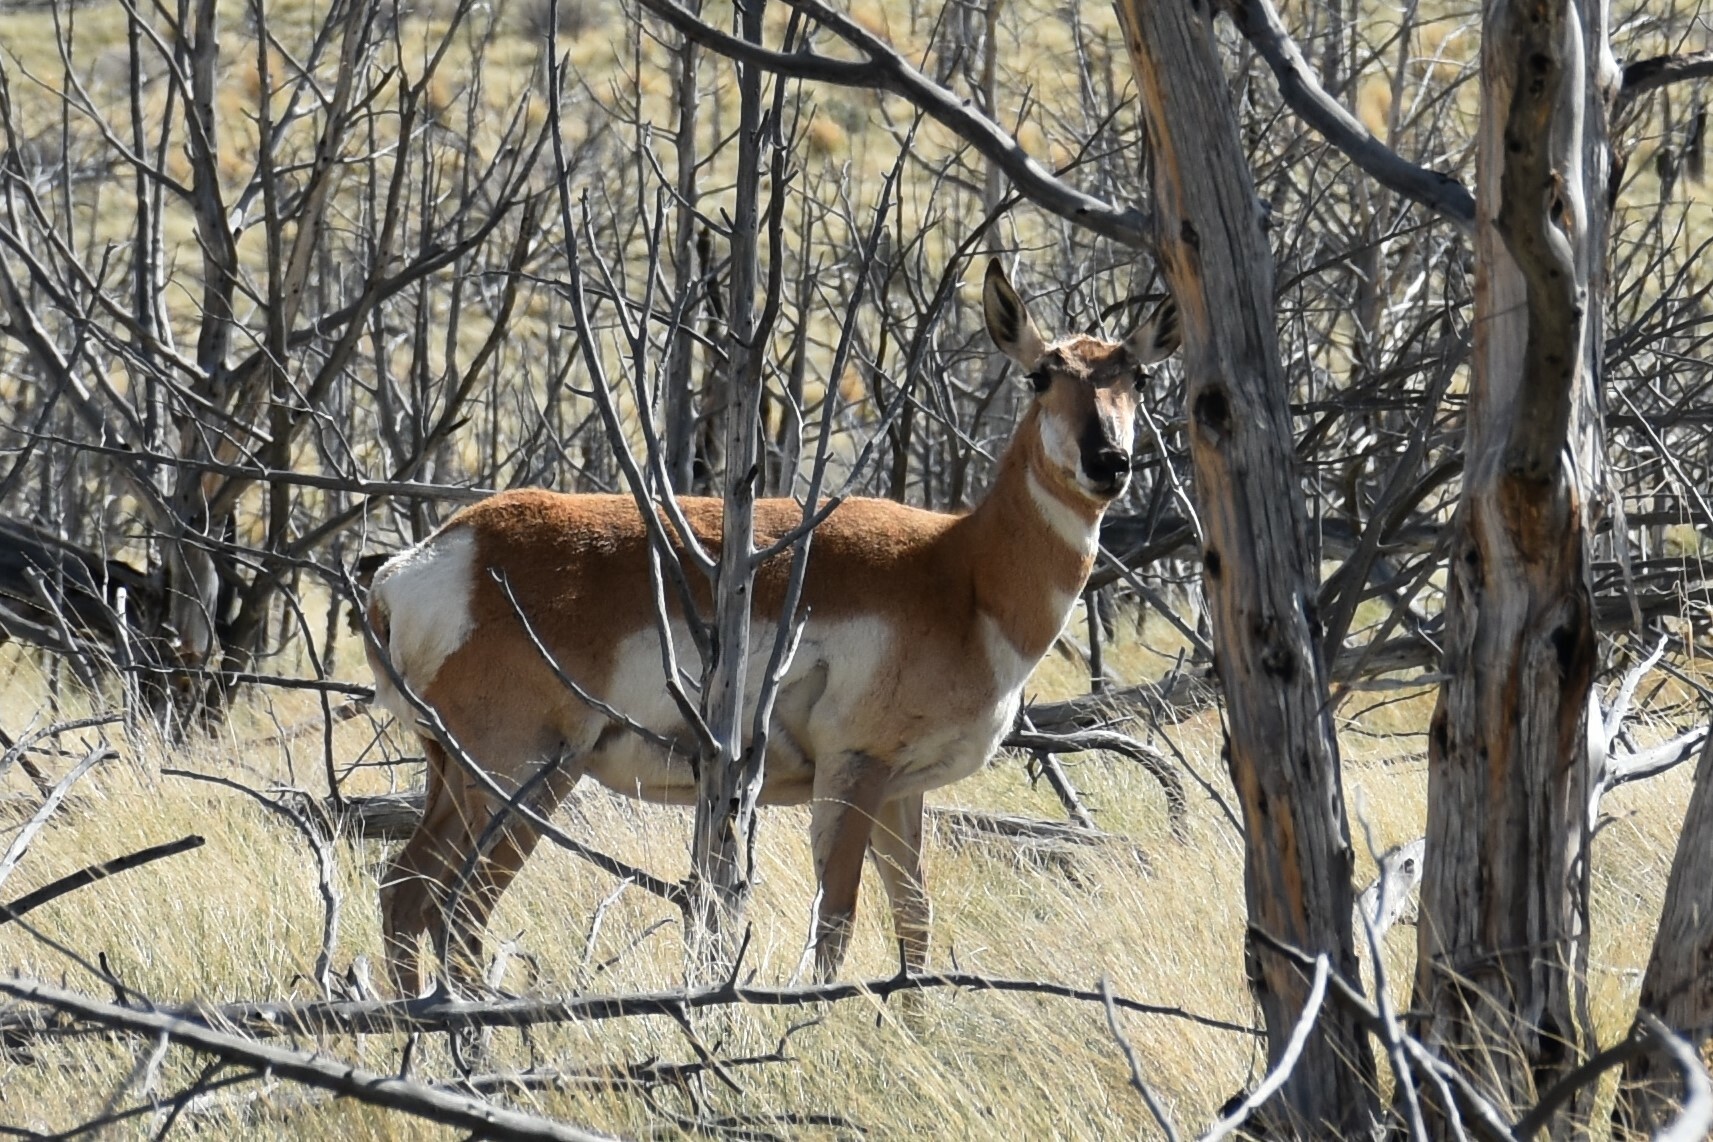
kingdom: Animalia
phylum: Chordata
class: Mammalia
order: Artiodactyla
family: Antilocapridae
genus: Antilocapra
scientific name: Antilocapra americana
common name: Pronghorn
